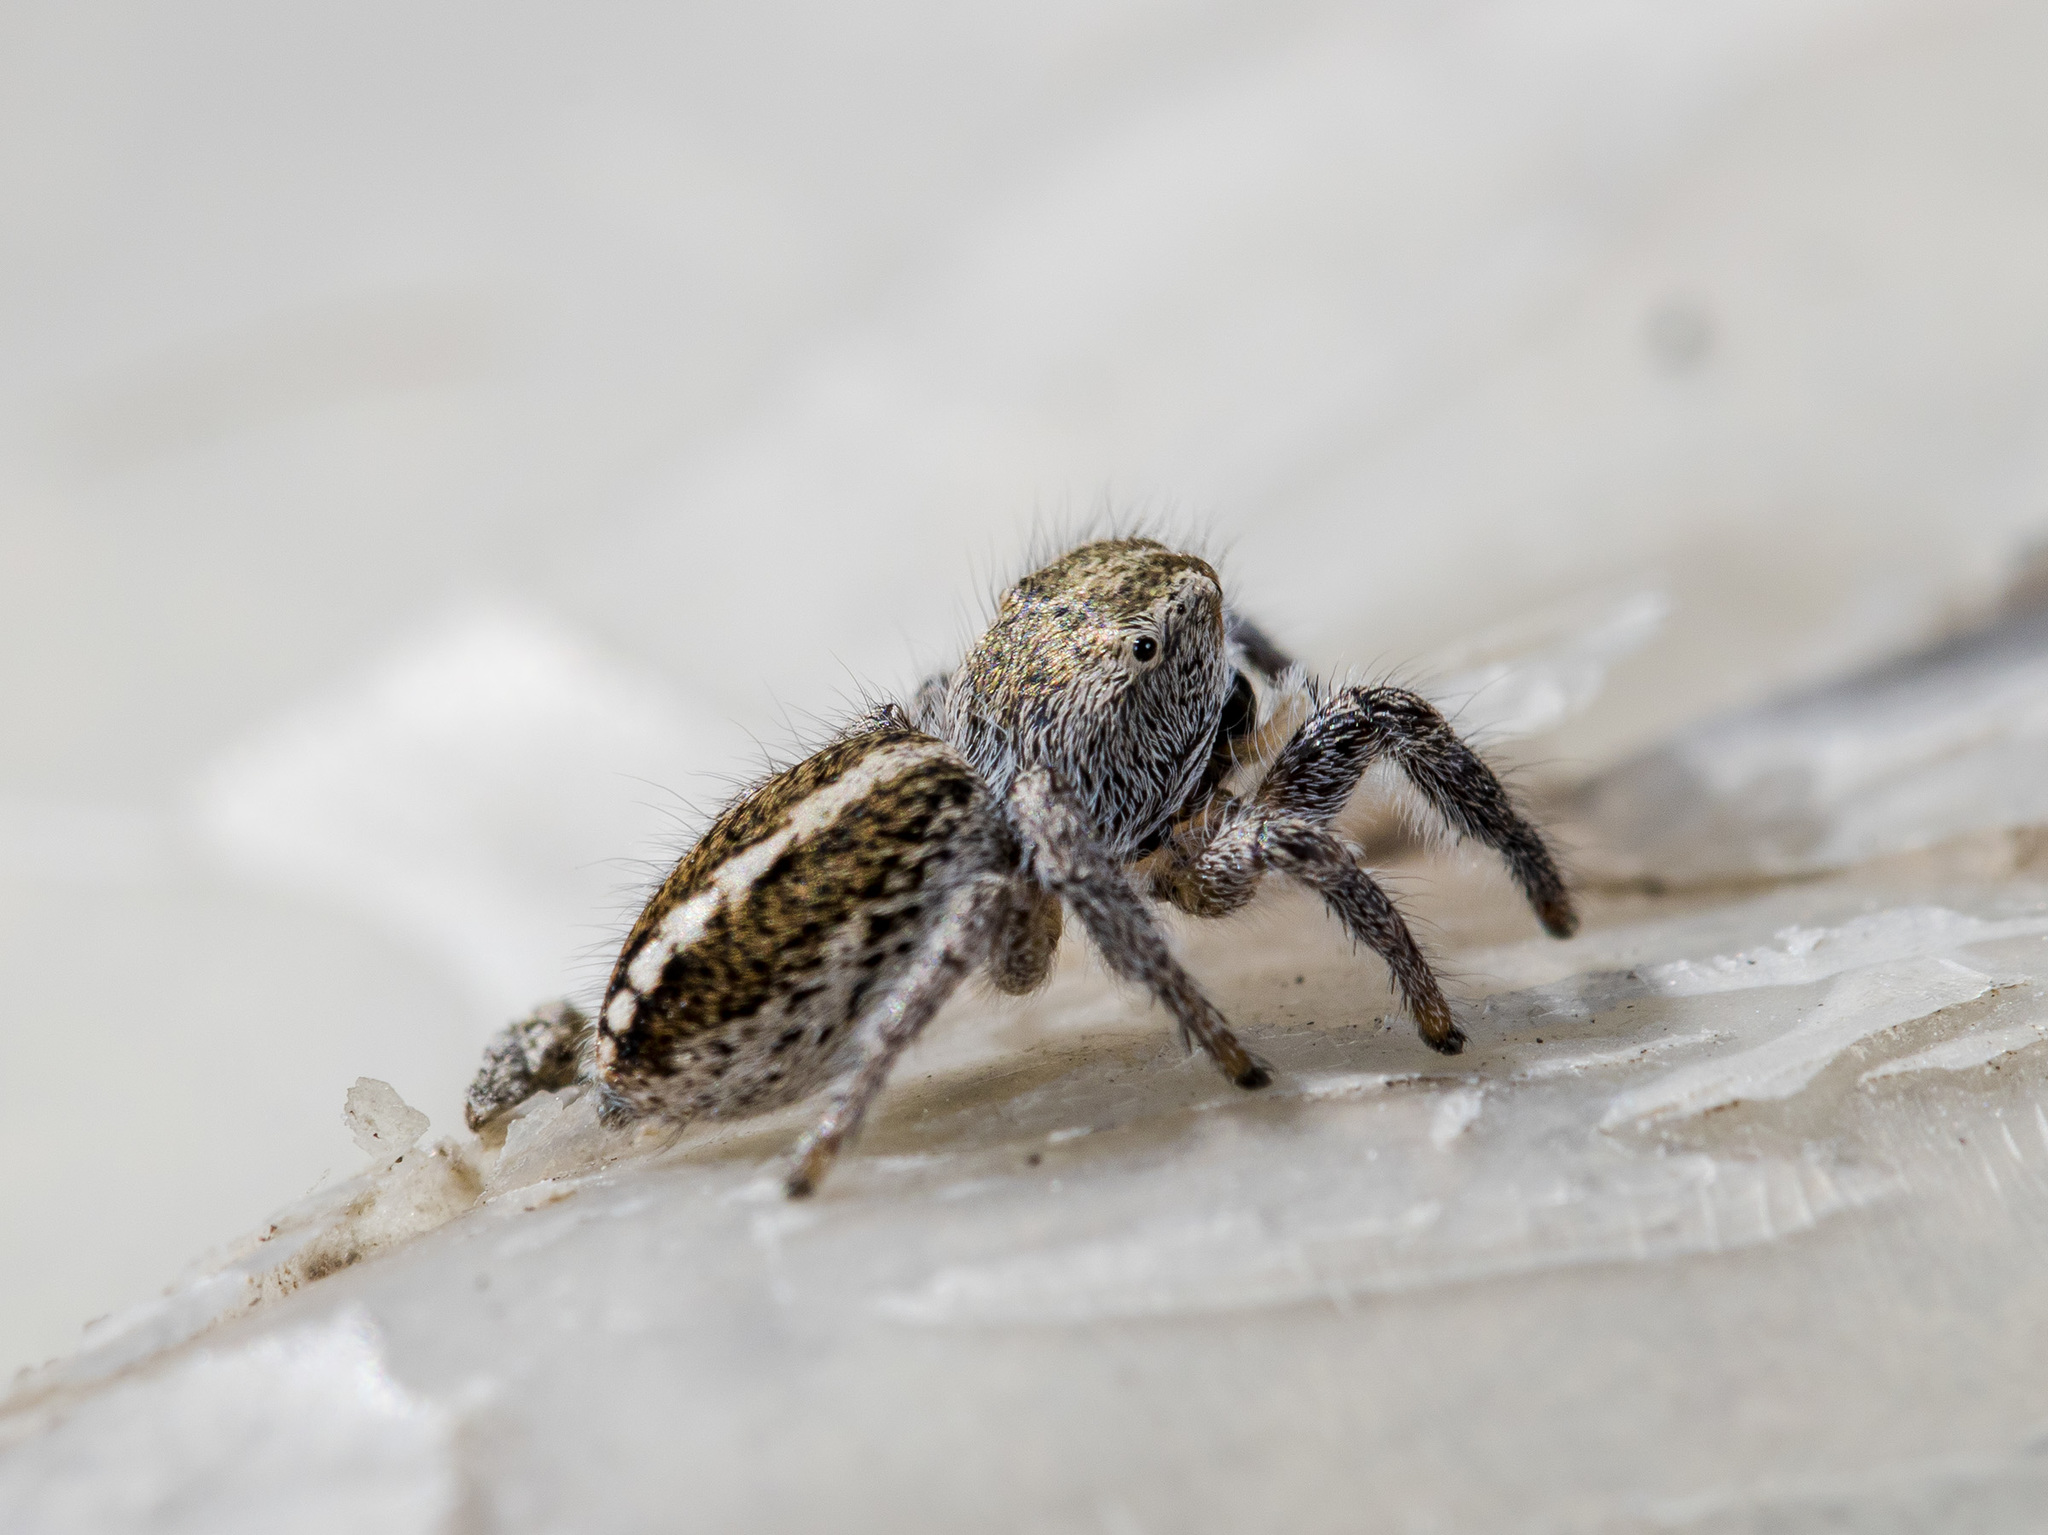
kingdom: Animalia
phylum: Arthropoda
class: Arachnida
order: Araneae
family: Salticidae
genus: Pellenes
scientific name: Pellenes seriatus
